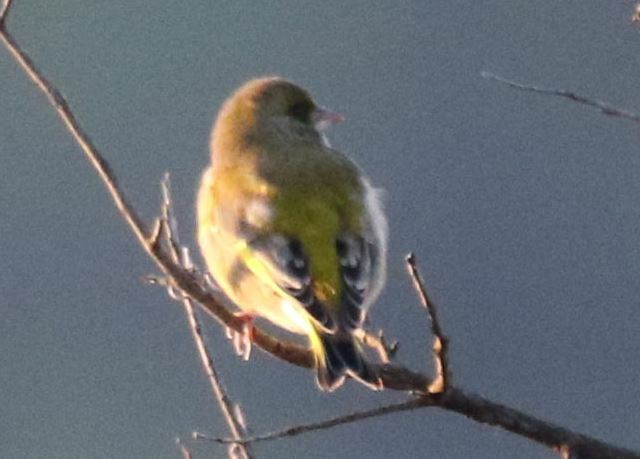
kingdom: Plantae
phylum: Tracheophyta
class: Liliopsida
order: Poales
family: Poaceae
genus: Chloris
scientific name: Chloris chloris
